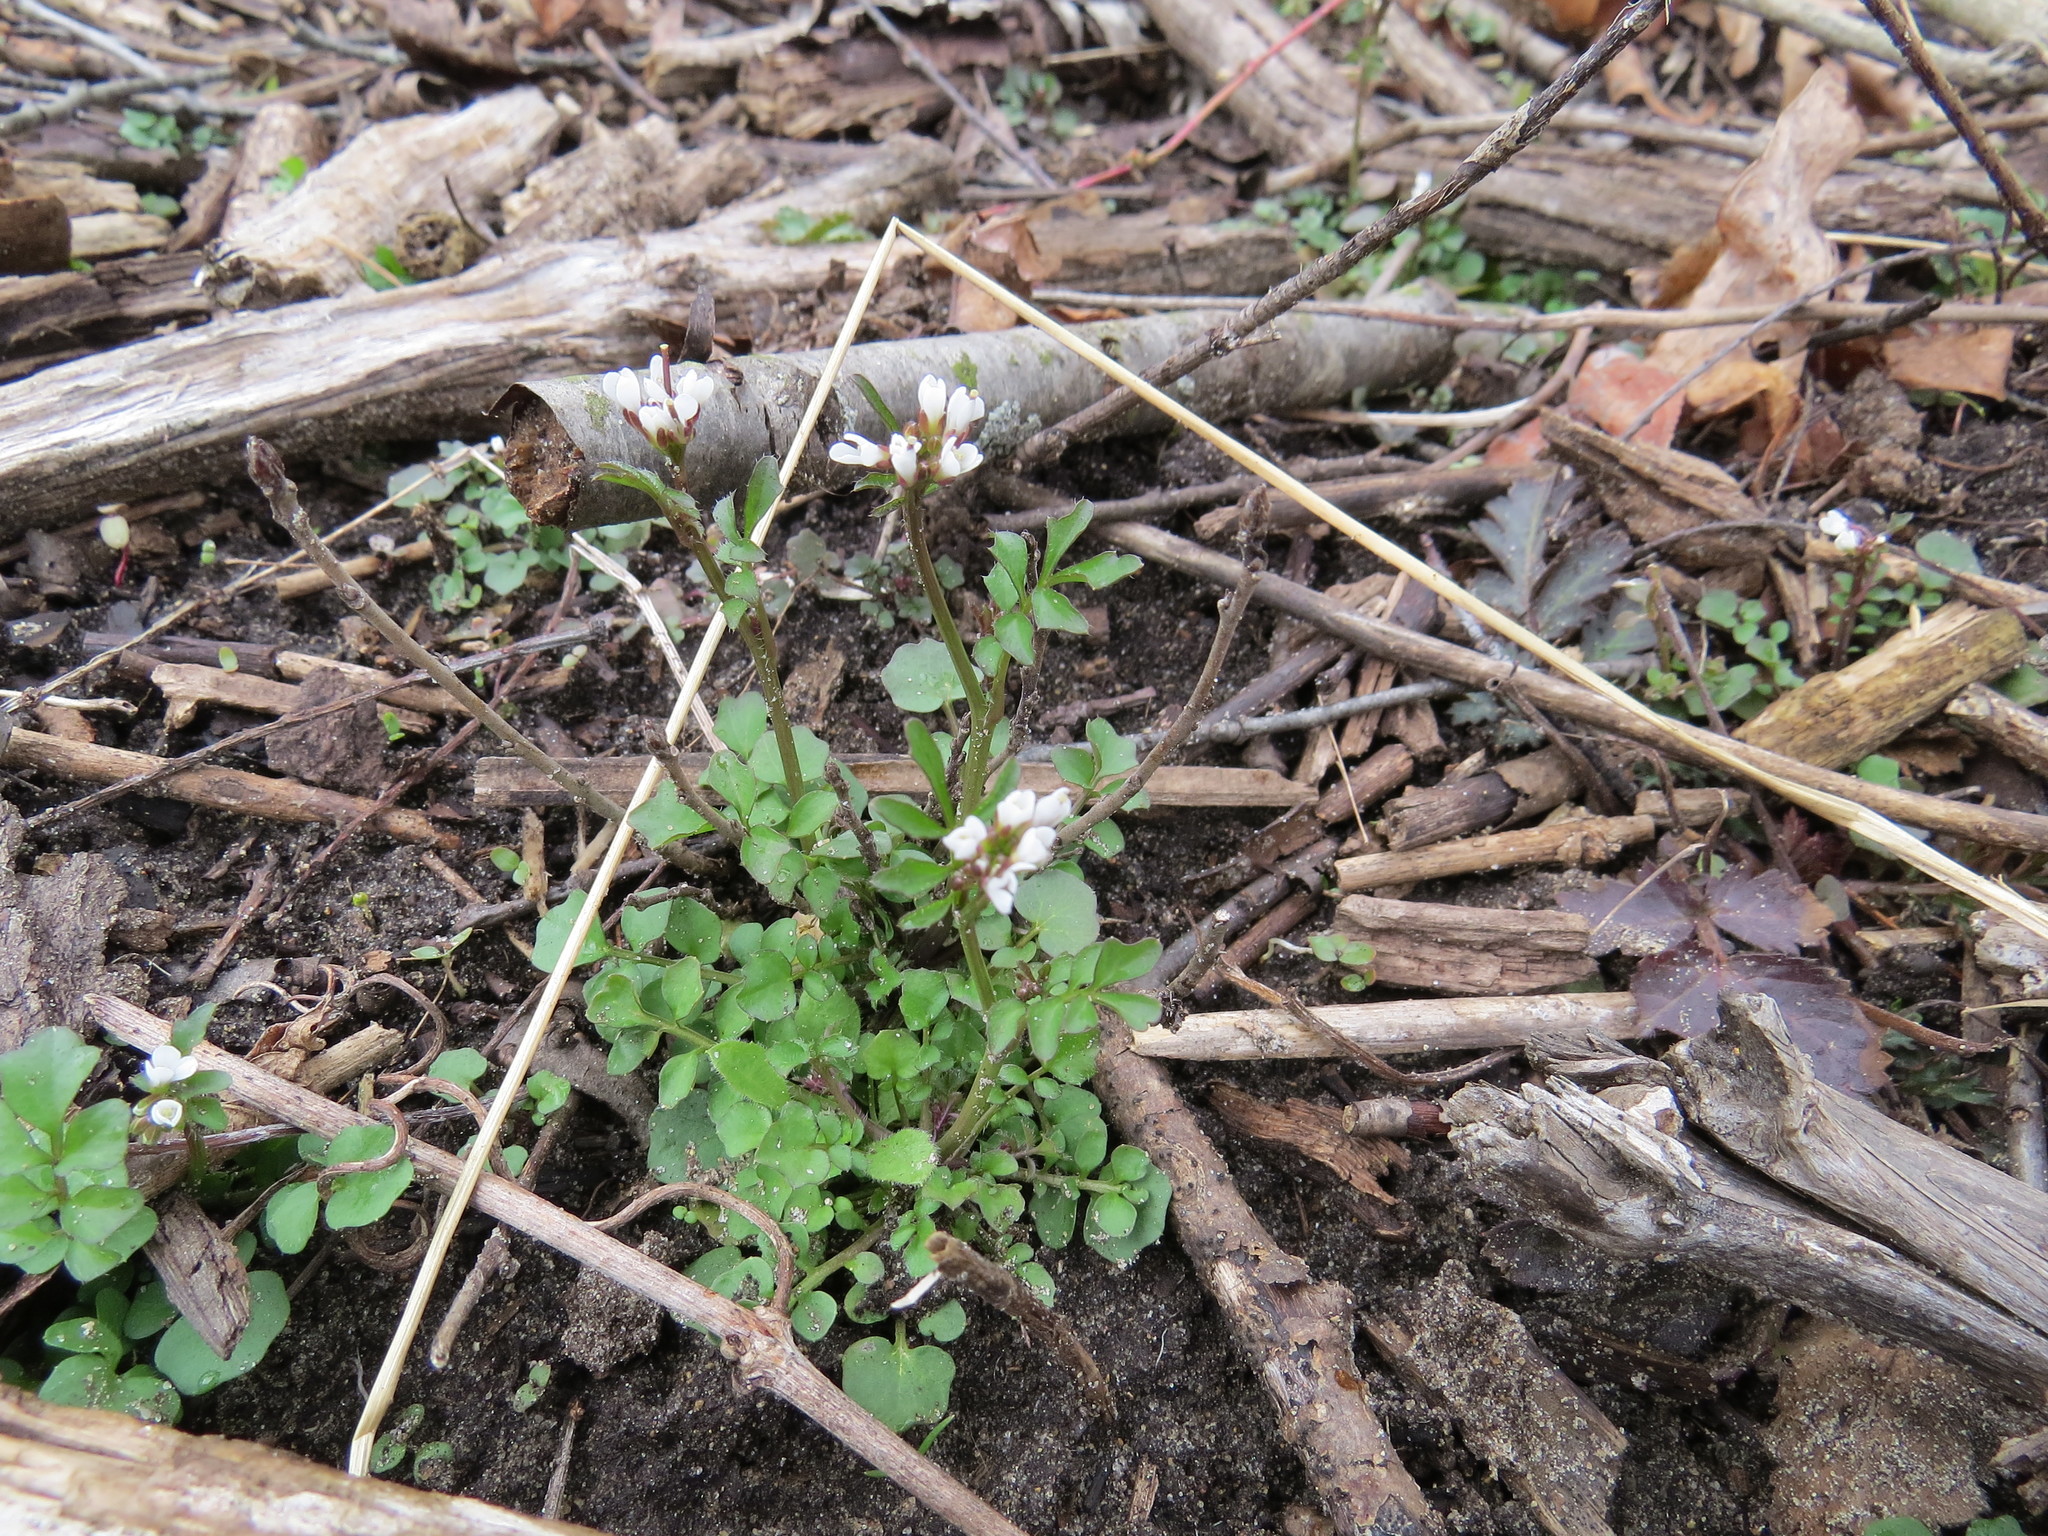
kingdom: Plantae
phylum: Tracheophyta
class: Magnoliopsida
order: Brassicales
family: Brassicaceae
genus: Cardamine
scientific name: Cardamine hirsuta
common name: Hairy bittercress
